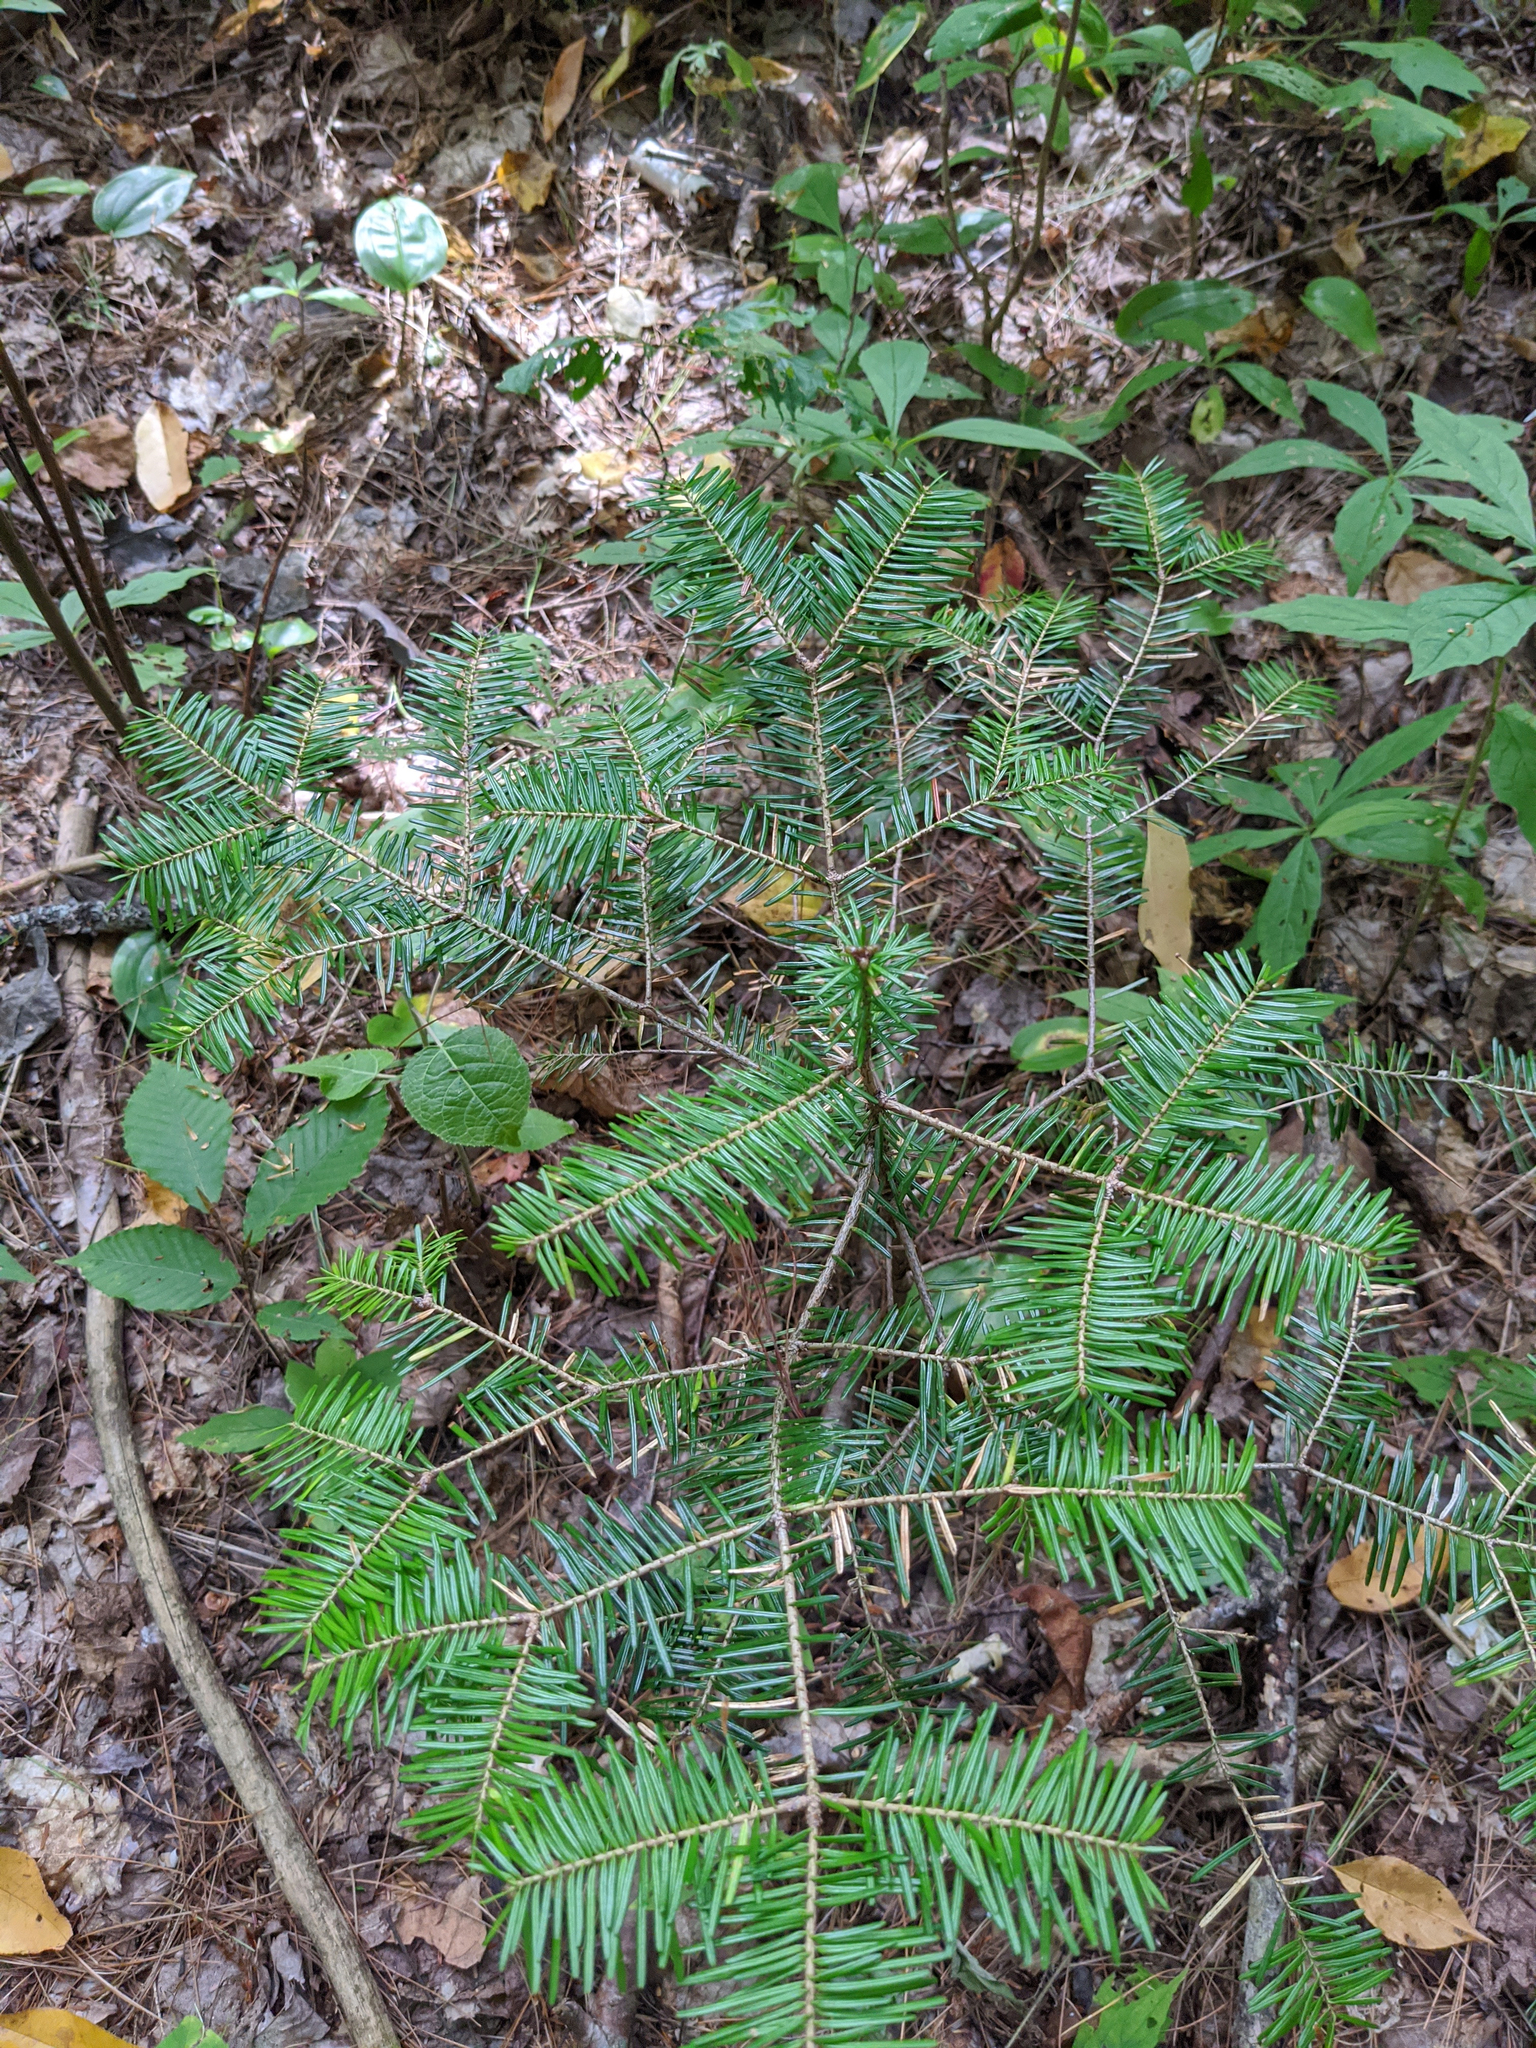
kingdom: Plantae
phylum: Tracheophyta
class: Pinopsida
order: Pinales
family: Pinaceae
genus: Abies
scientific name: Abies balsamea
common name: Balsam fir
